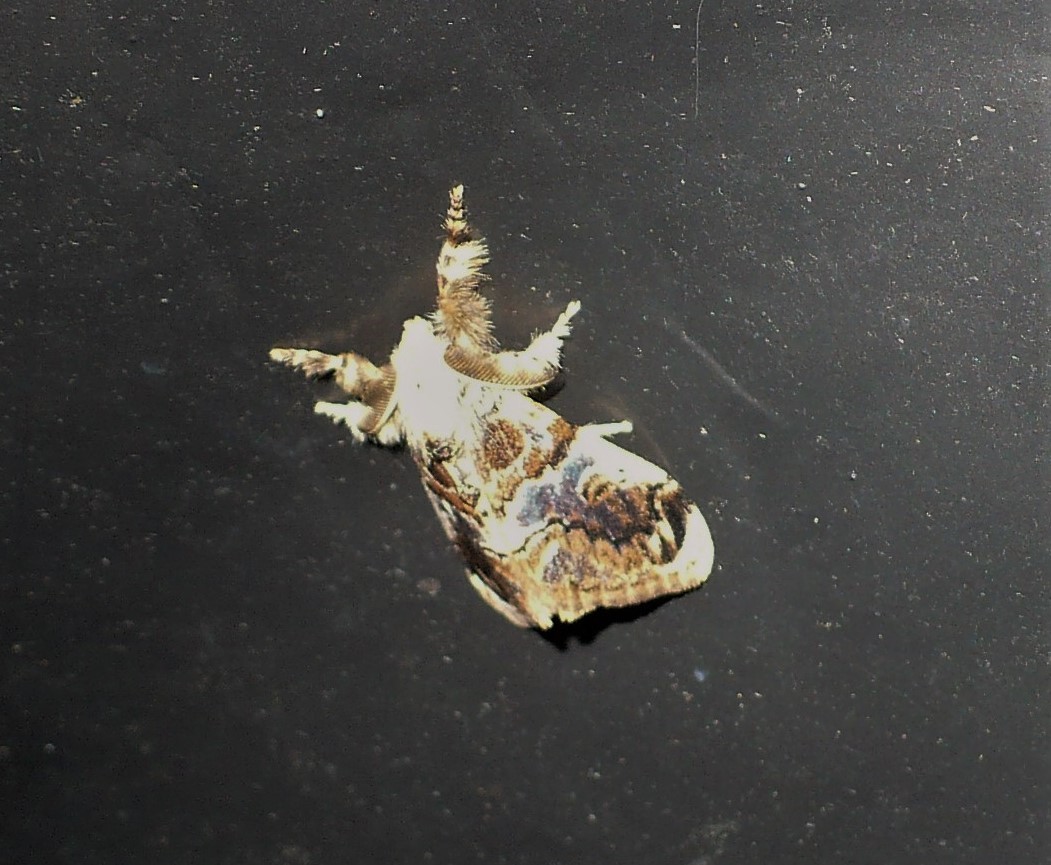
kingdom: Animalia
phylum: Arthropoda
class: Insecta
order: Lepidoptera
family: Erebidae
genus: Orgyia
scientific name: Orgyia costaricensis
